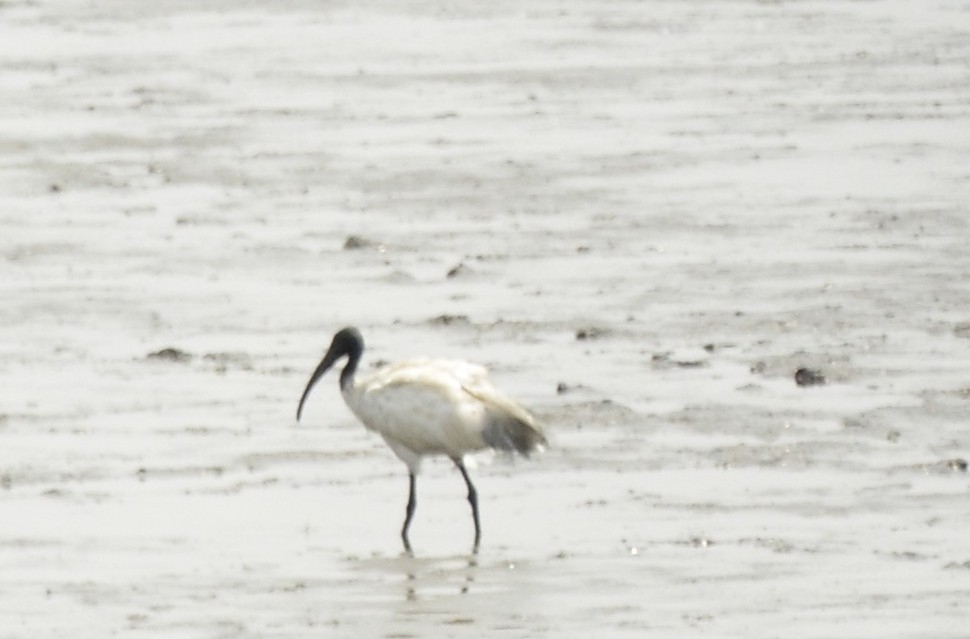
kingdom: Animalia
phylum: Chordata
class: Aves
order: Pelecaniformes
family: Threskiornithidae
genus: Threskiornis
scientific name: Threskiornis melanocephalus
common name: Black-headed ibis
